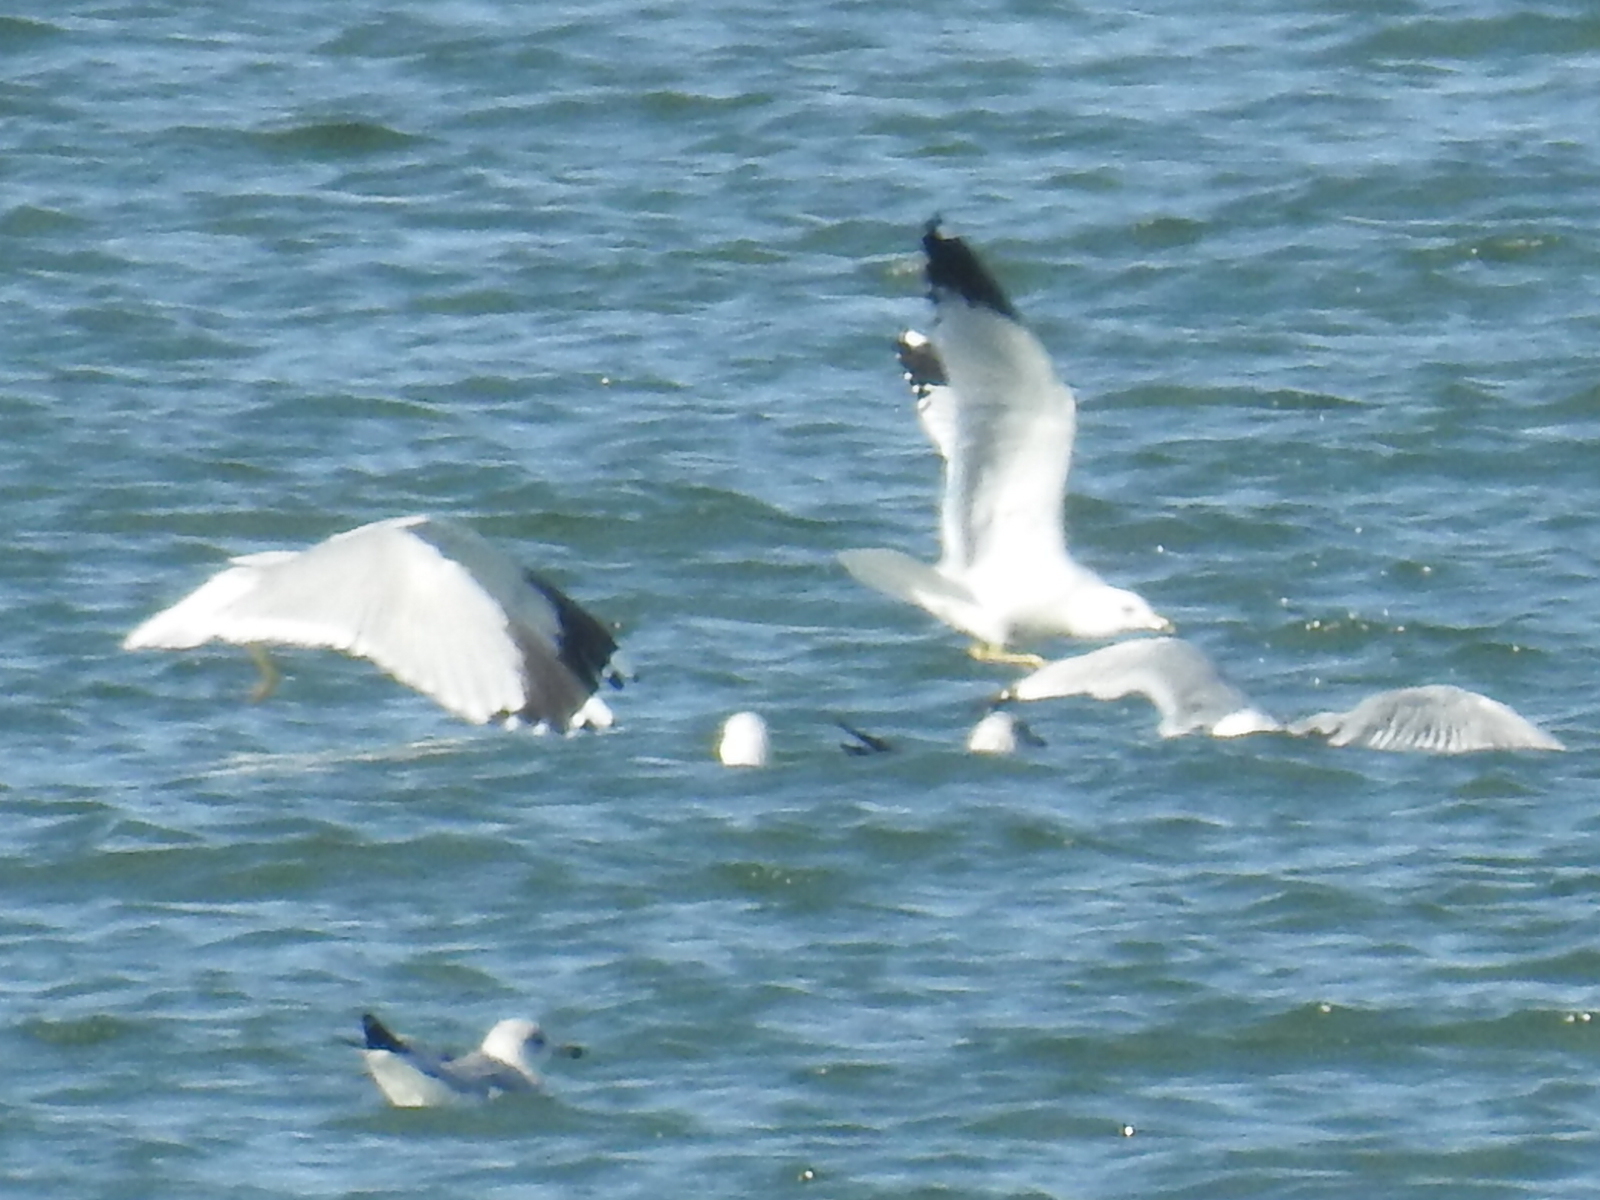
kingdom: Animalia
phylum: Chordata
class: Aves
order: Charadriiformes
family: Laridae
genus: Larus
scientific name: Larus delawarensis
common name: Ring-billed gull
